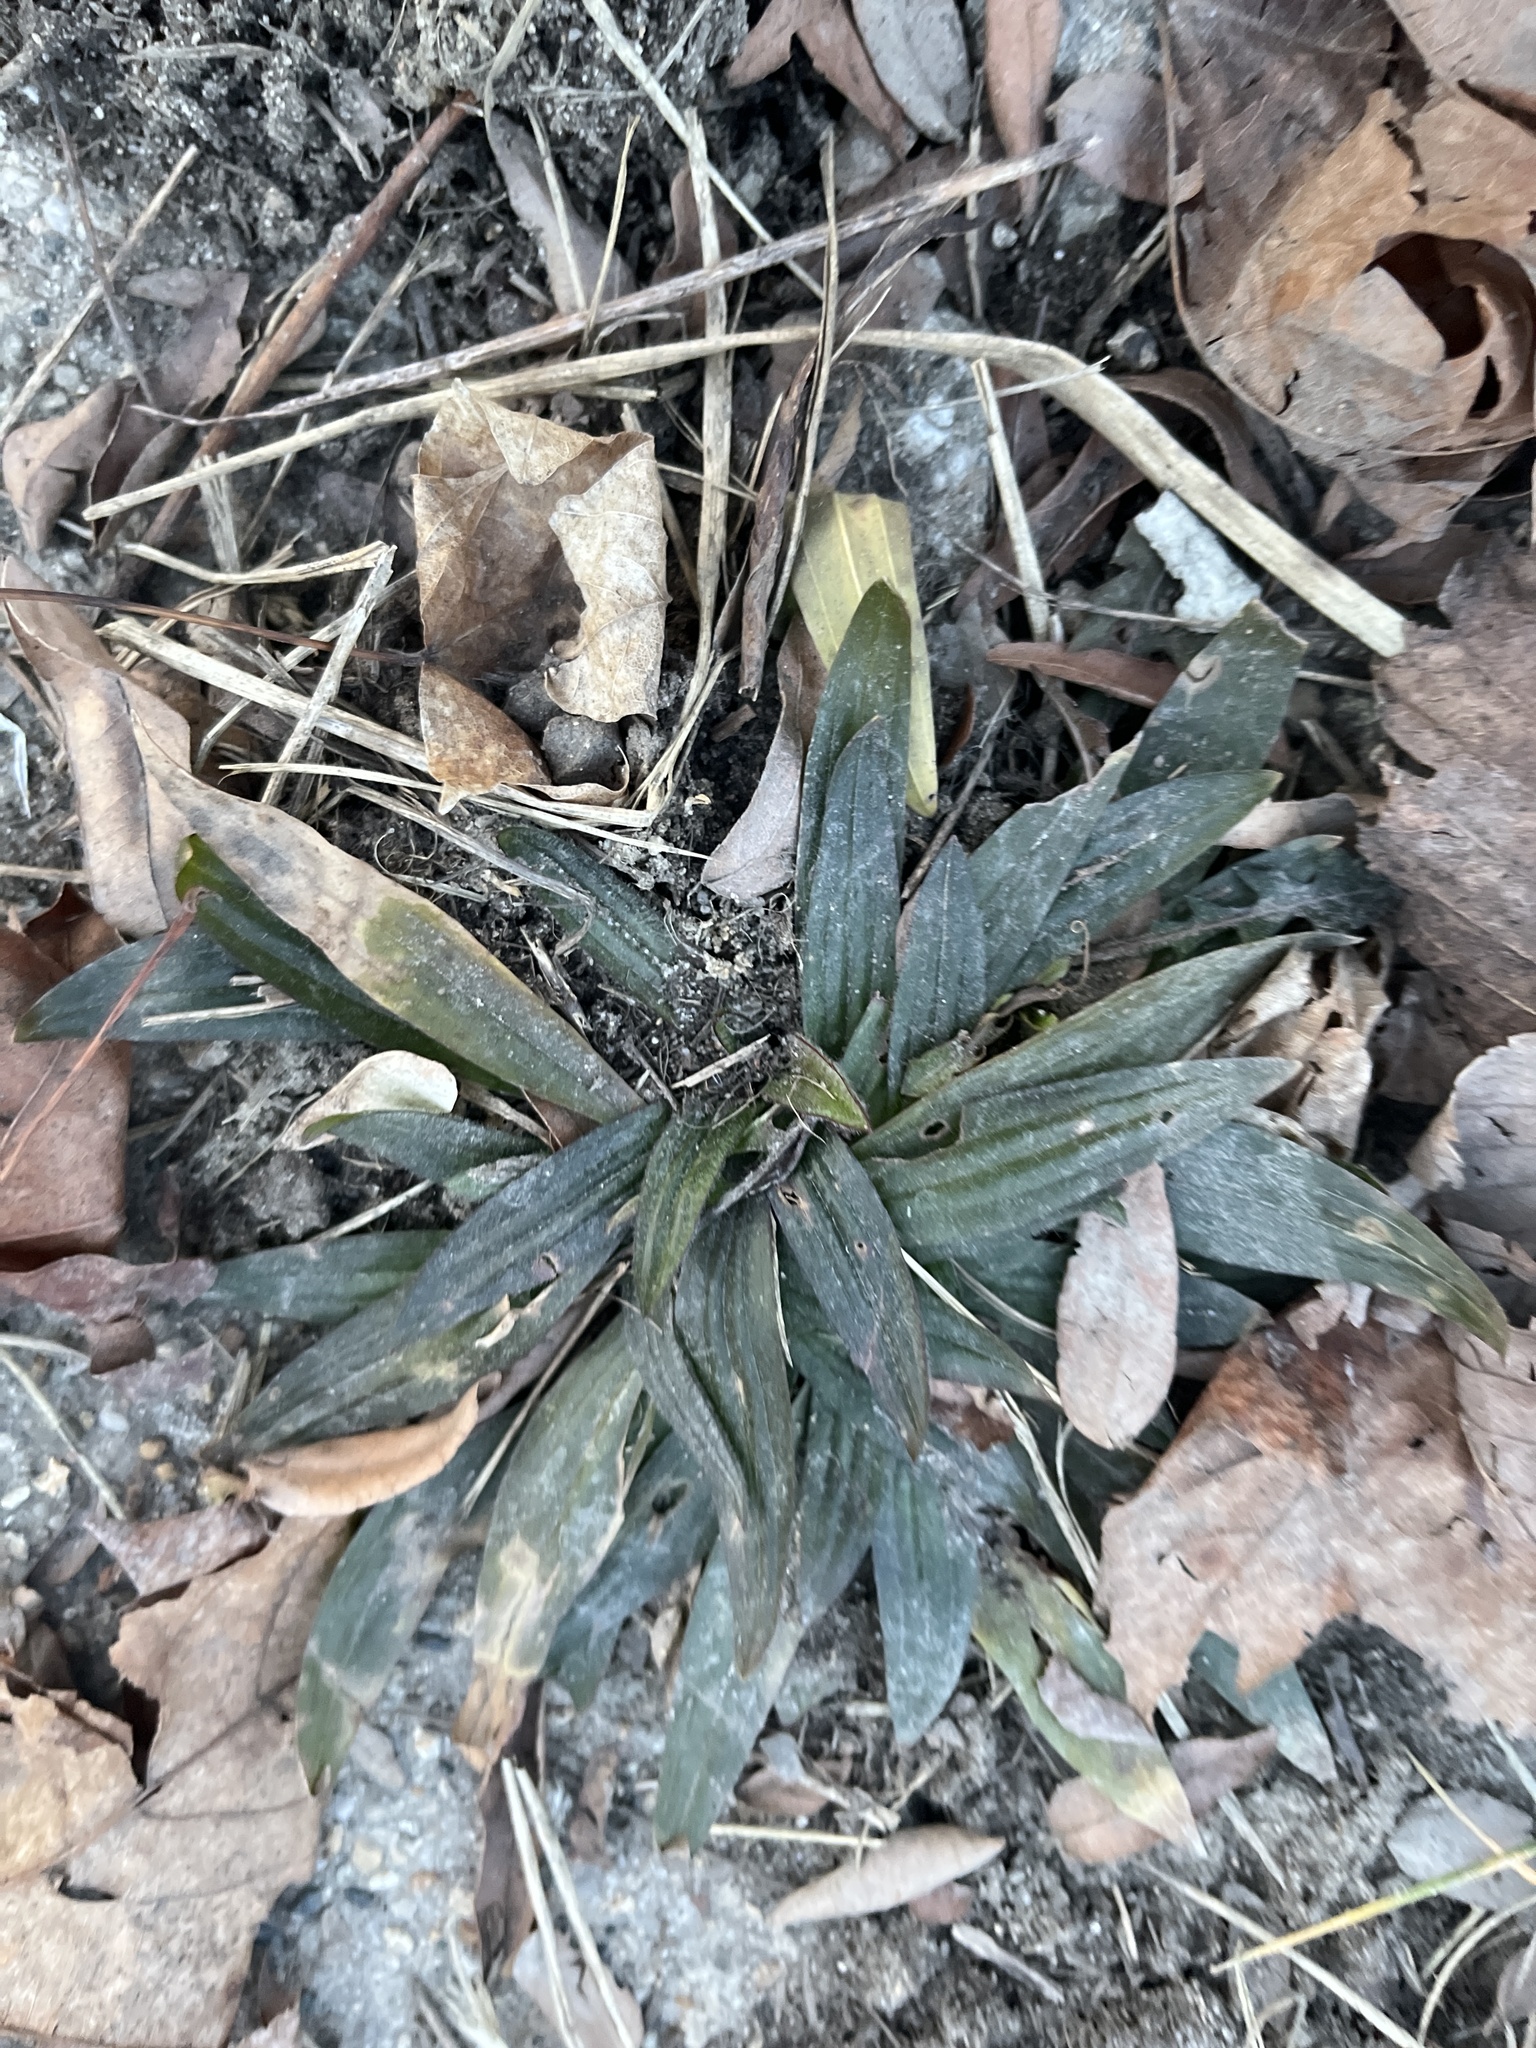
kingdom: Plantae
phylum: Tracheophyta
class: Magnoliopsida
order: Lamiales
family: Plantaginaceae
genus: Plantago
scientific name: Plantago lanceolata
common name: Ribwort plantain
